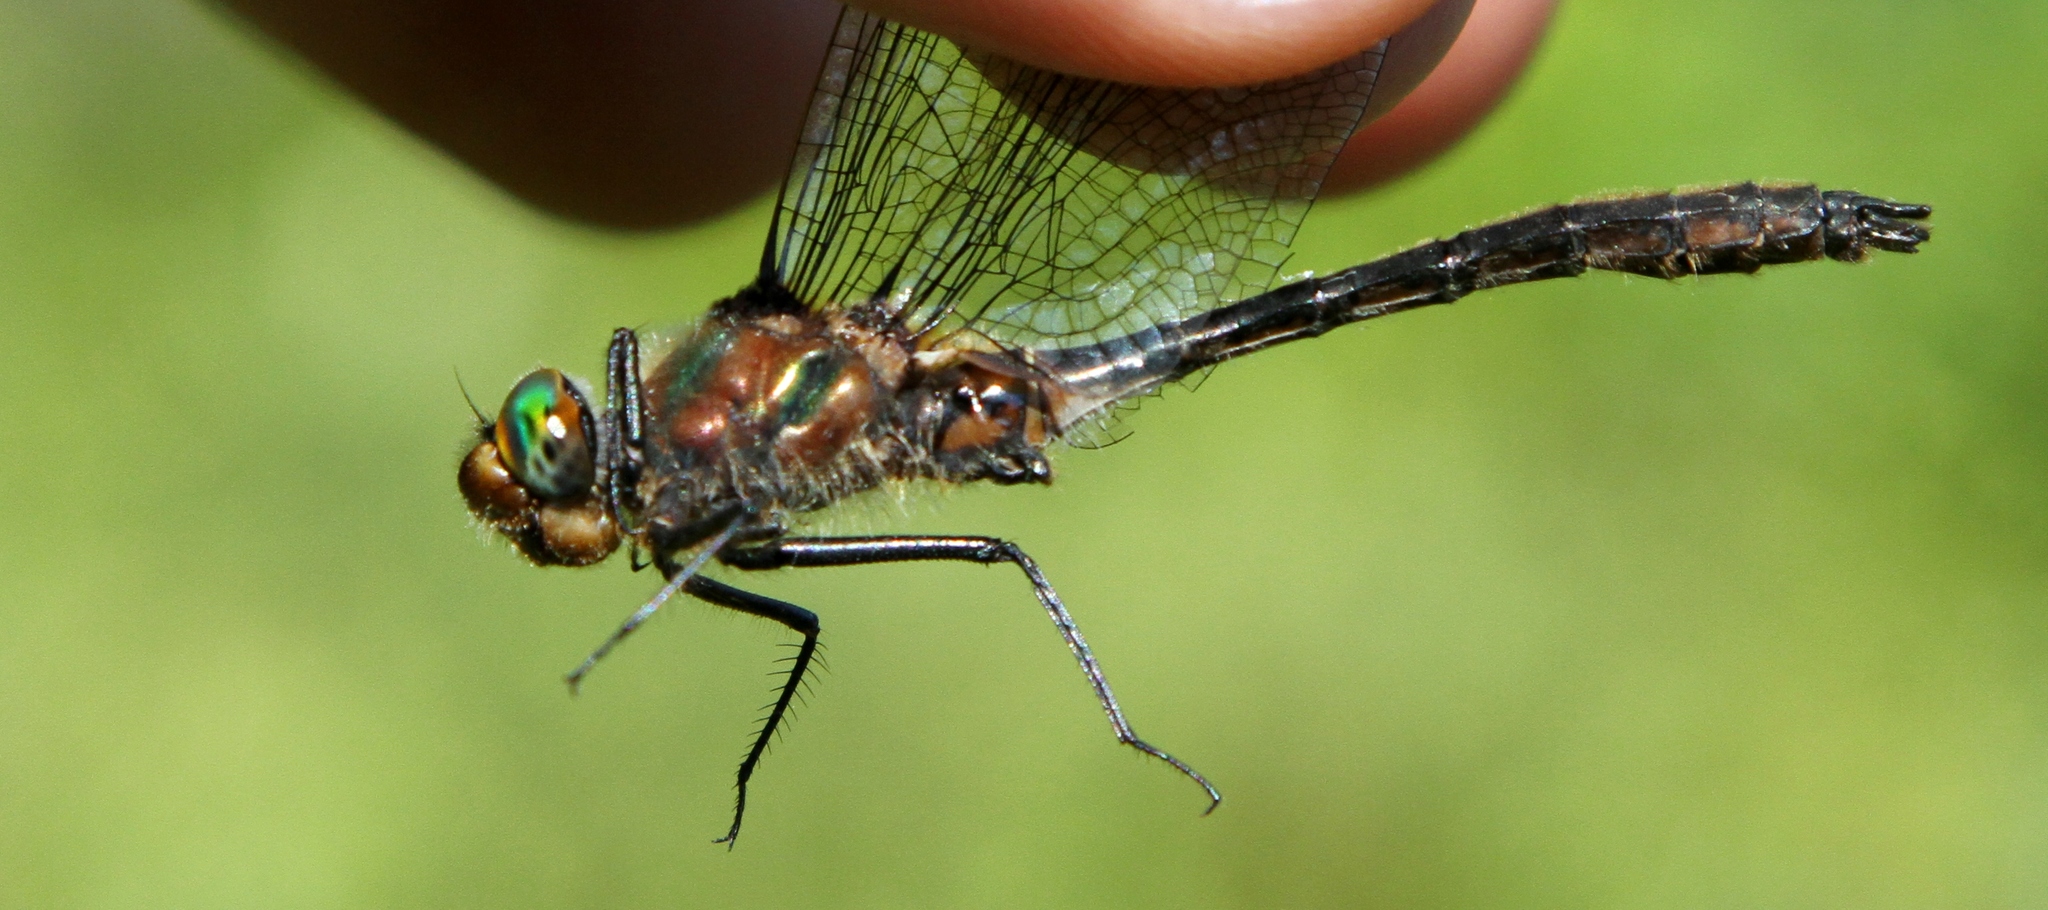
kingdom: Animalia
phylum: Arthropoda
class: Insecta
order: Odonata
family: Corduliidae
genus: Cordulia
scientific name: Cordulia shurtleffii
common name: American emerald
